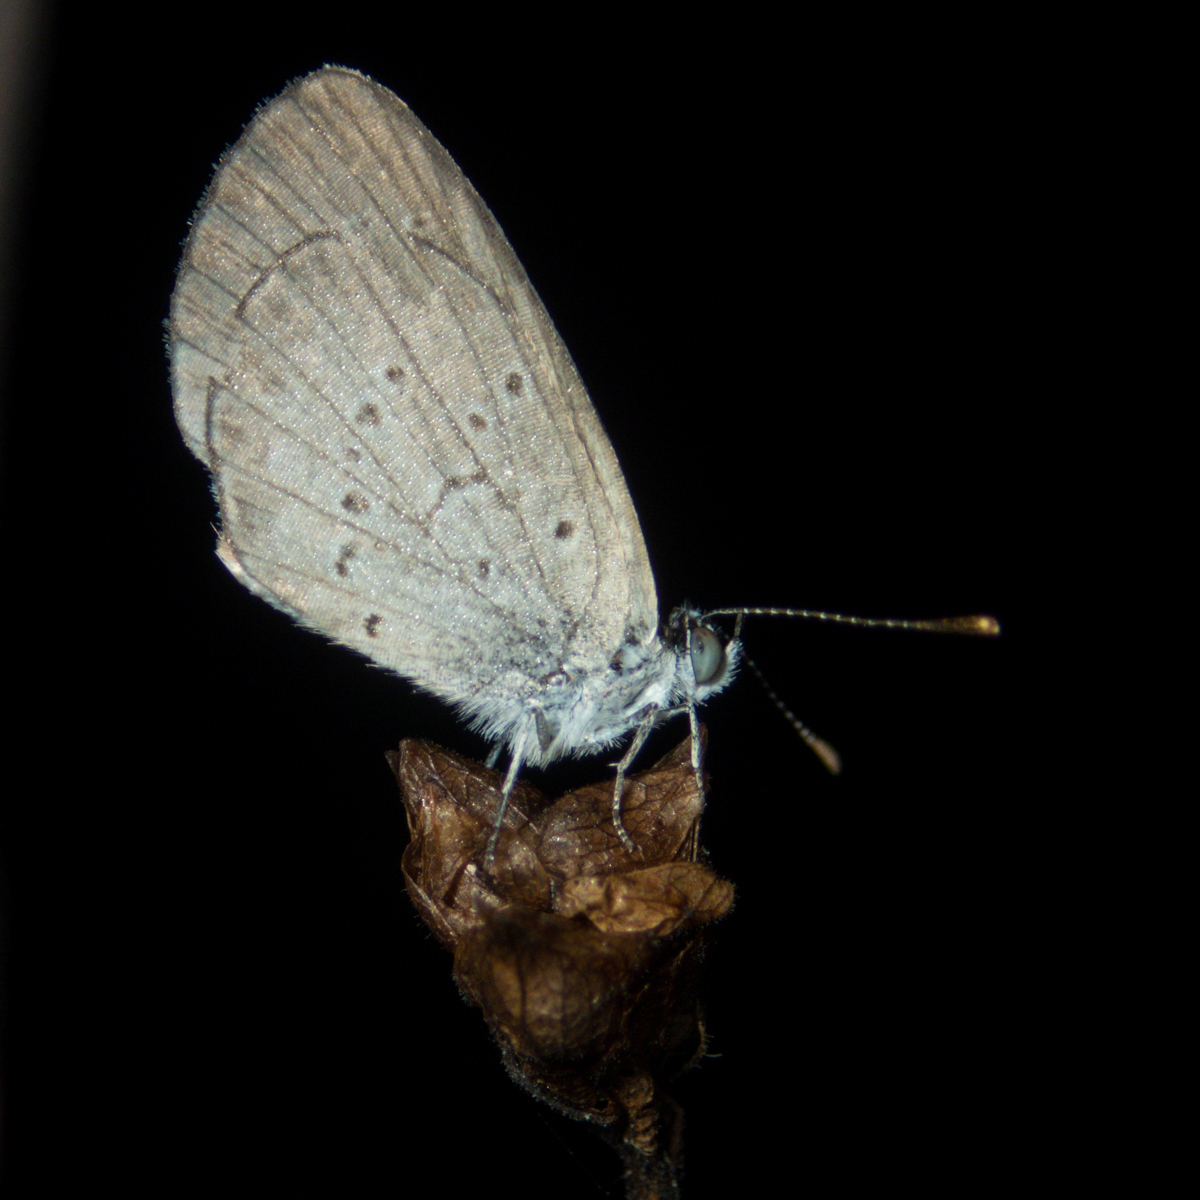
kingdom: Animalia
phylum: Arthropoda
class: Insecta
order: Lepidoptera
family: Lycaenidae
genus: Zizina
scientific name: Zizina otis
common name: Lesser grass blue
